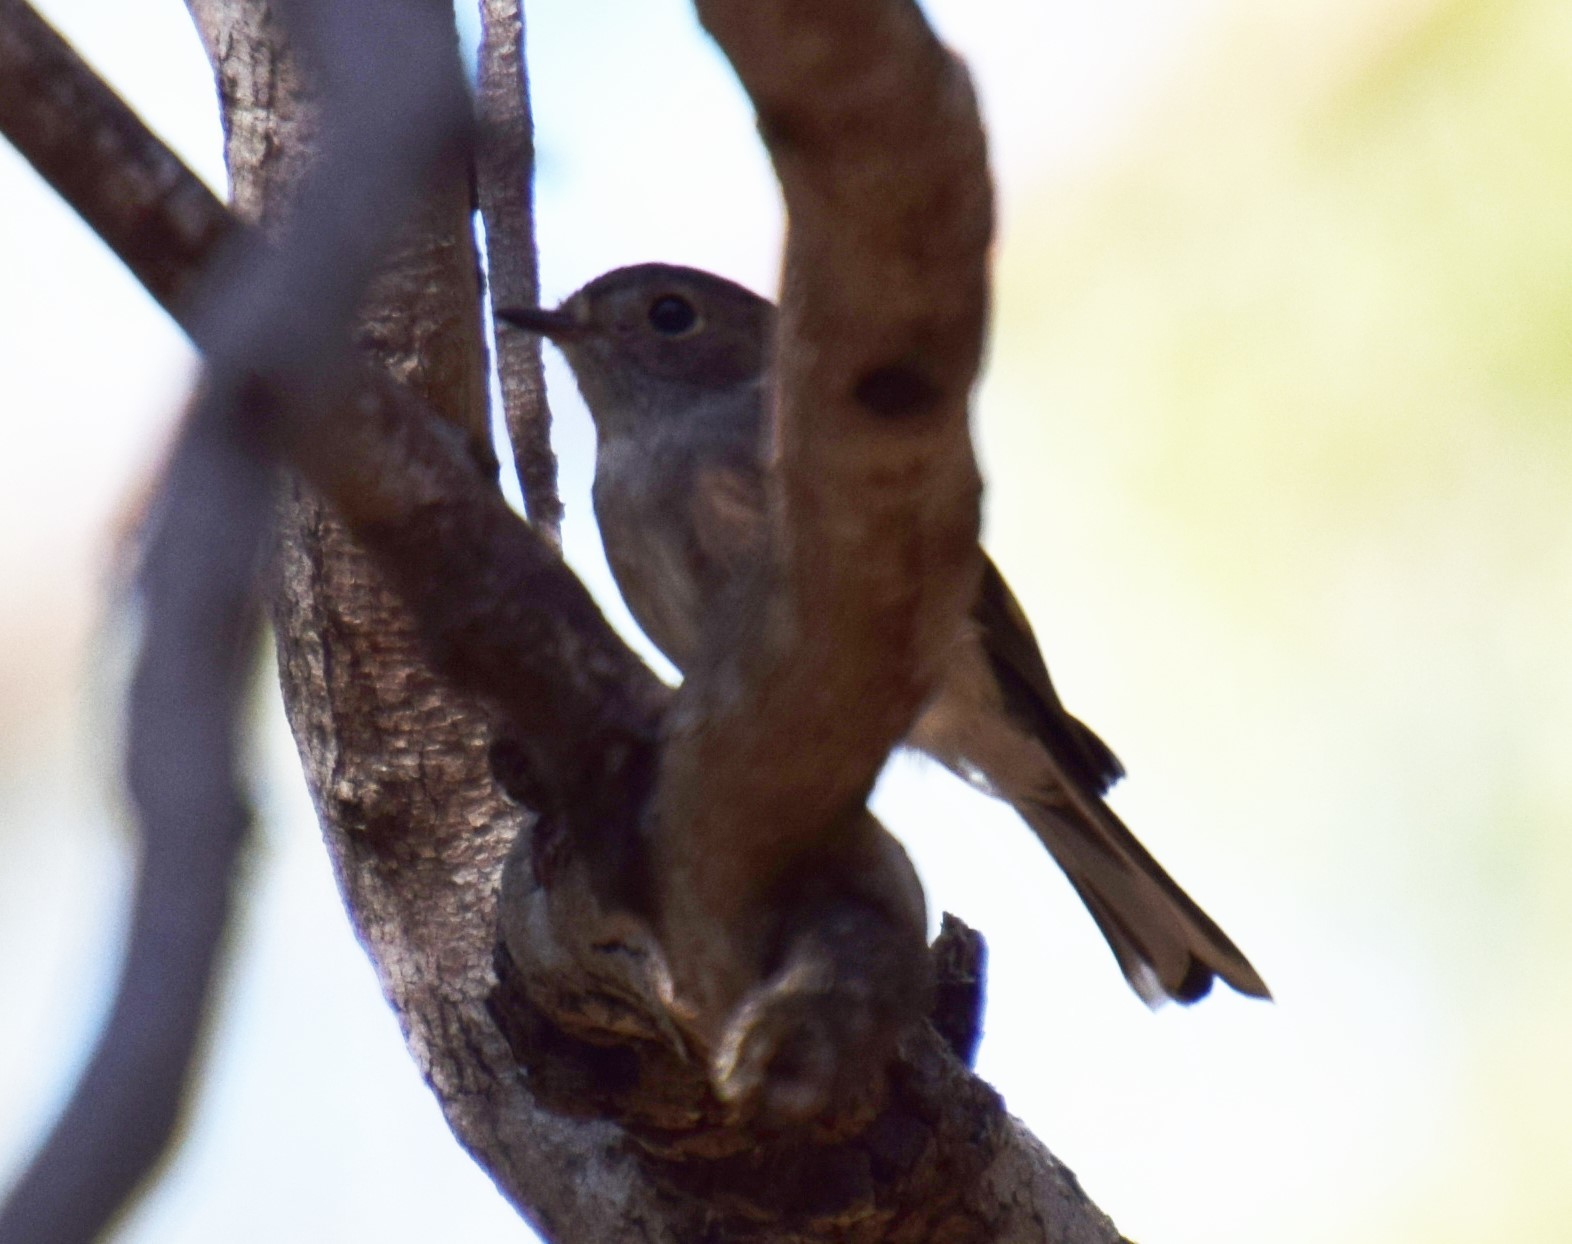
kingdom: Animalia
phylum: Chordata
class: Aves
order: Passeriformes
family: Petroicidae
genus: Petroica
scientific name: Petroica rosea
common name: Rose robin
